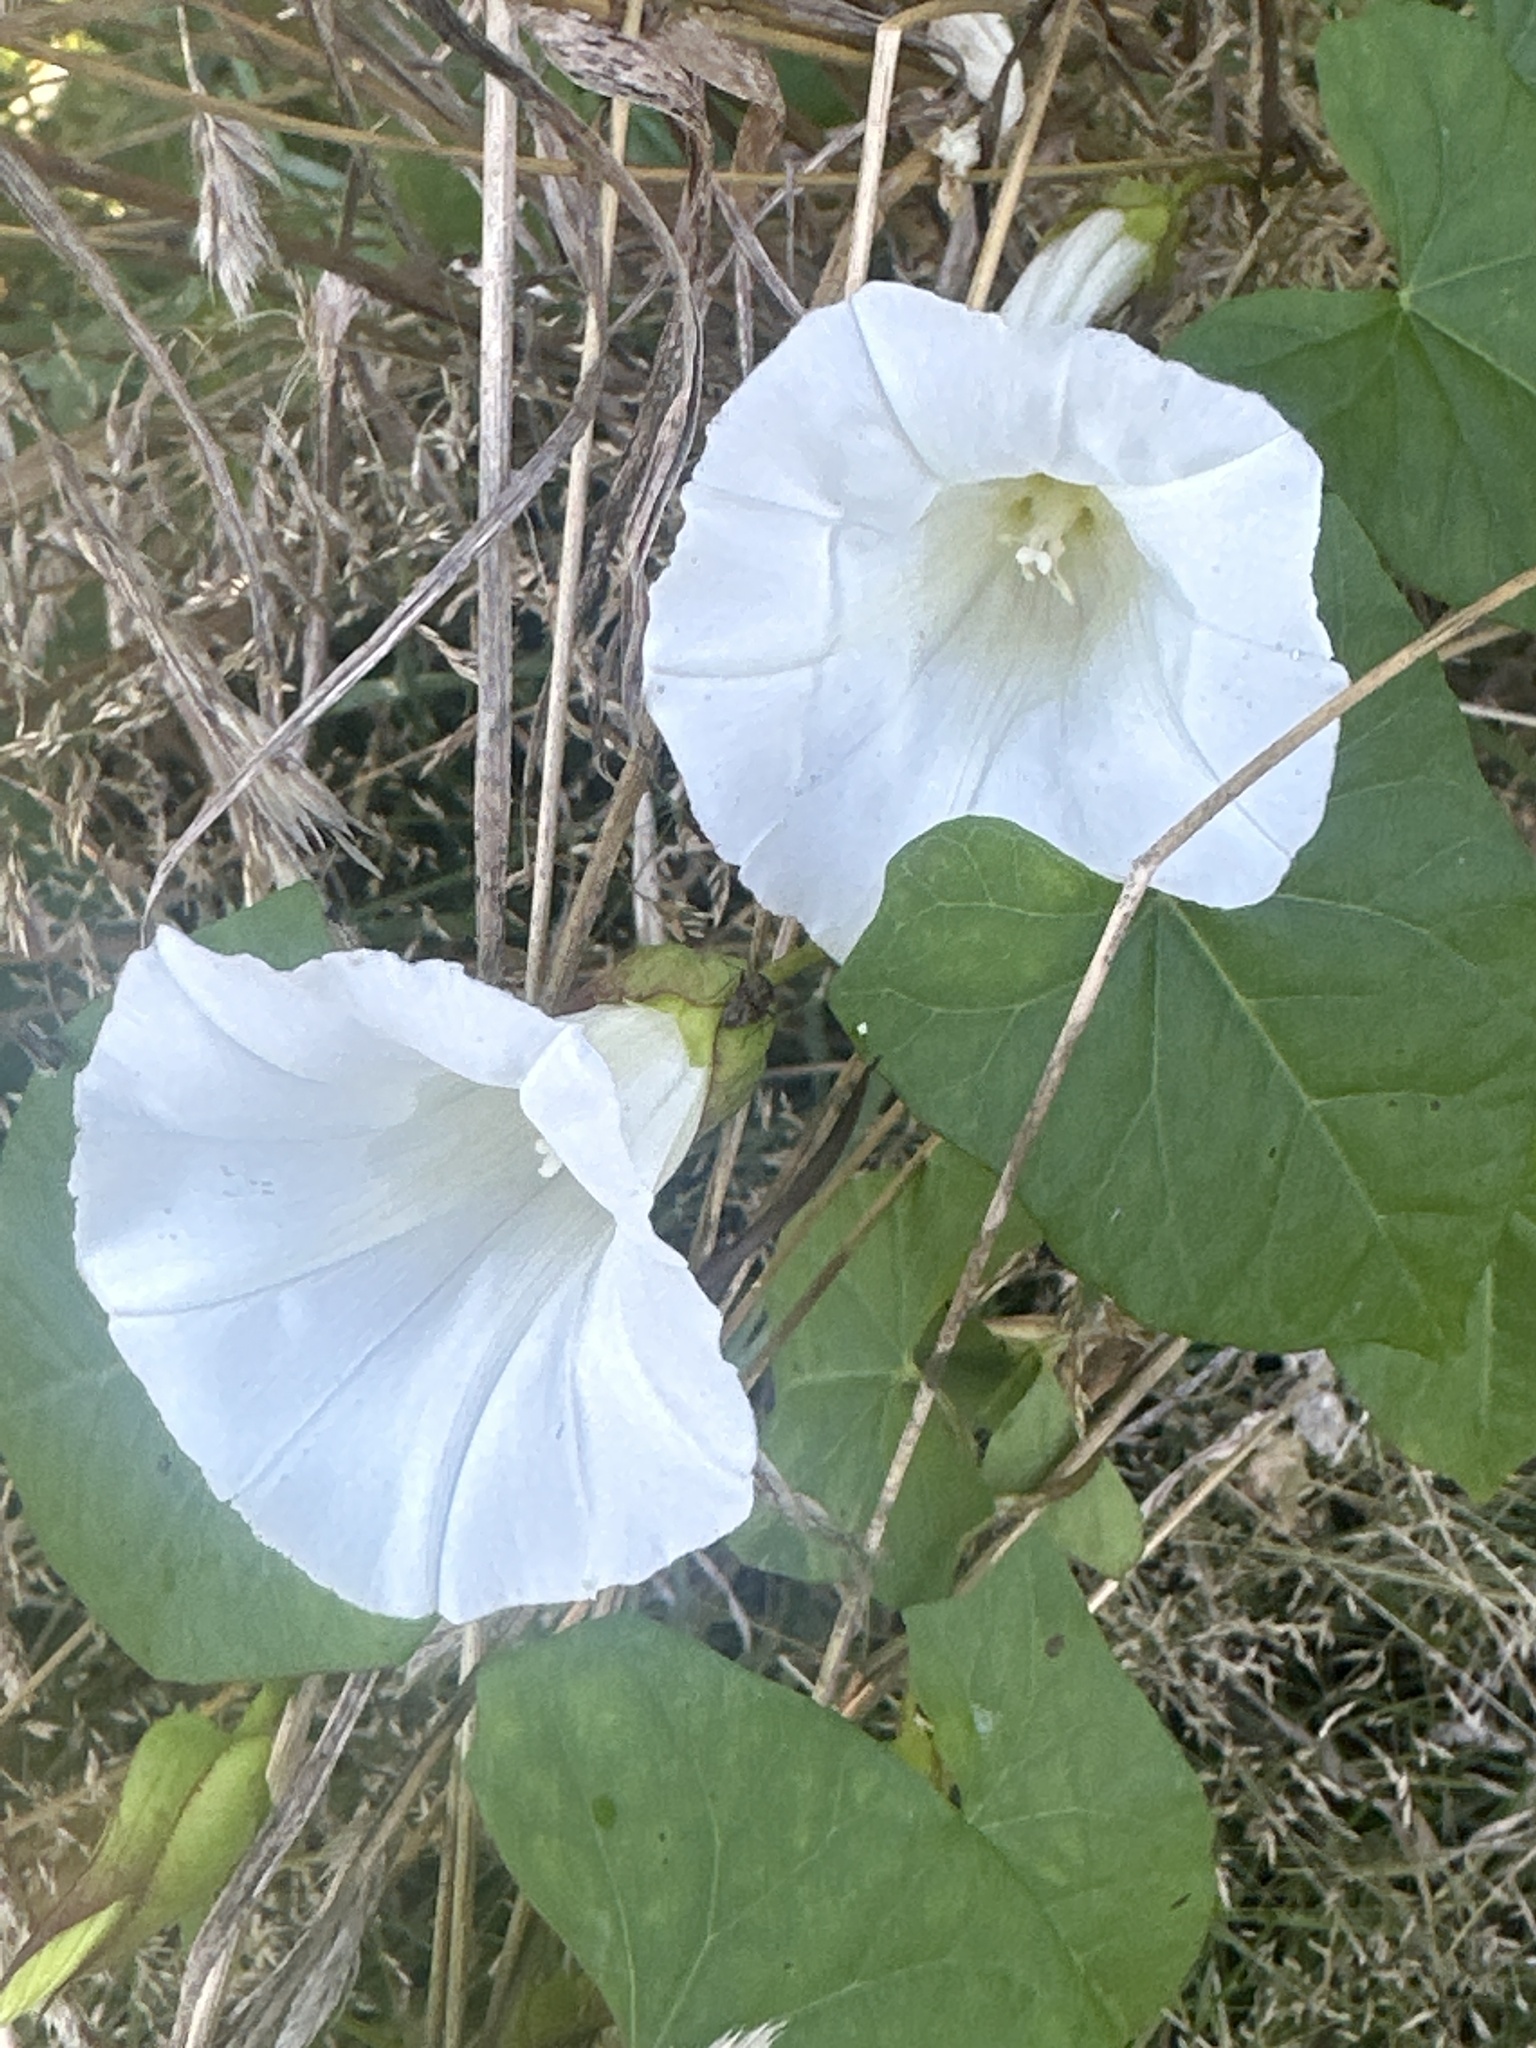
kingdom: Plantae
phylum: Tracheophyta
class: Magnoliopsida
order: Solanales
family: Convolvulaceae
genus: Calystegia
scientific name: Calystegia sepium
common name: Hedge bindweed
